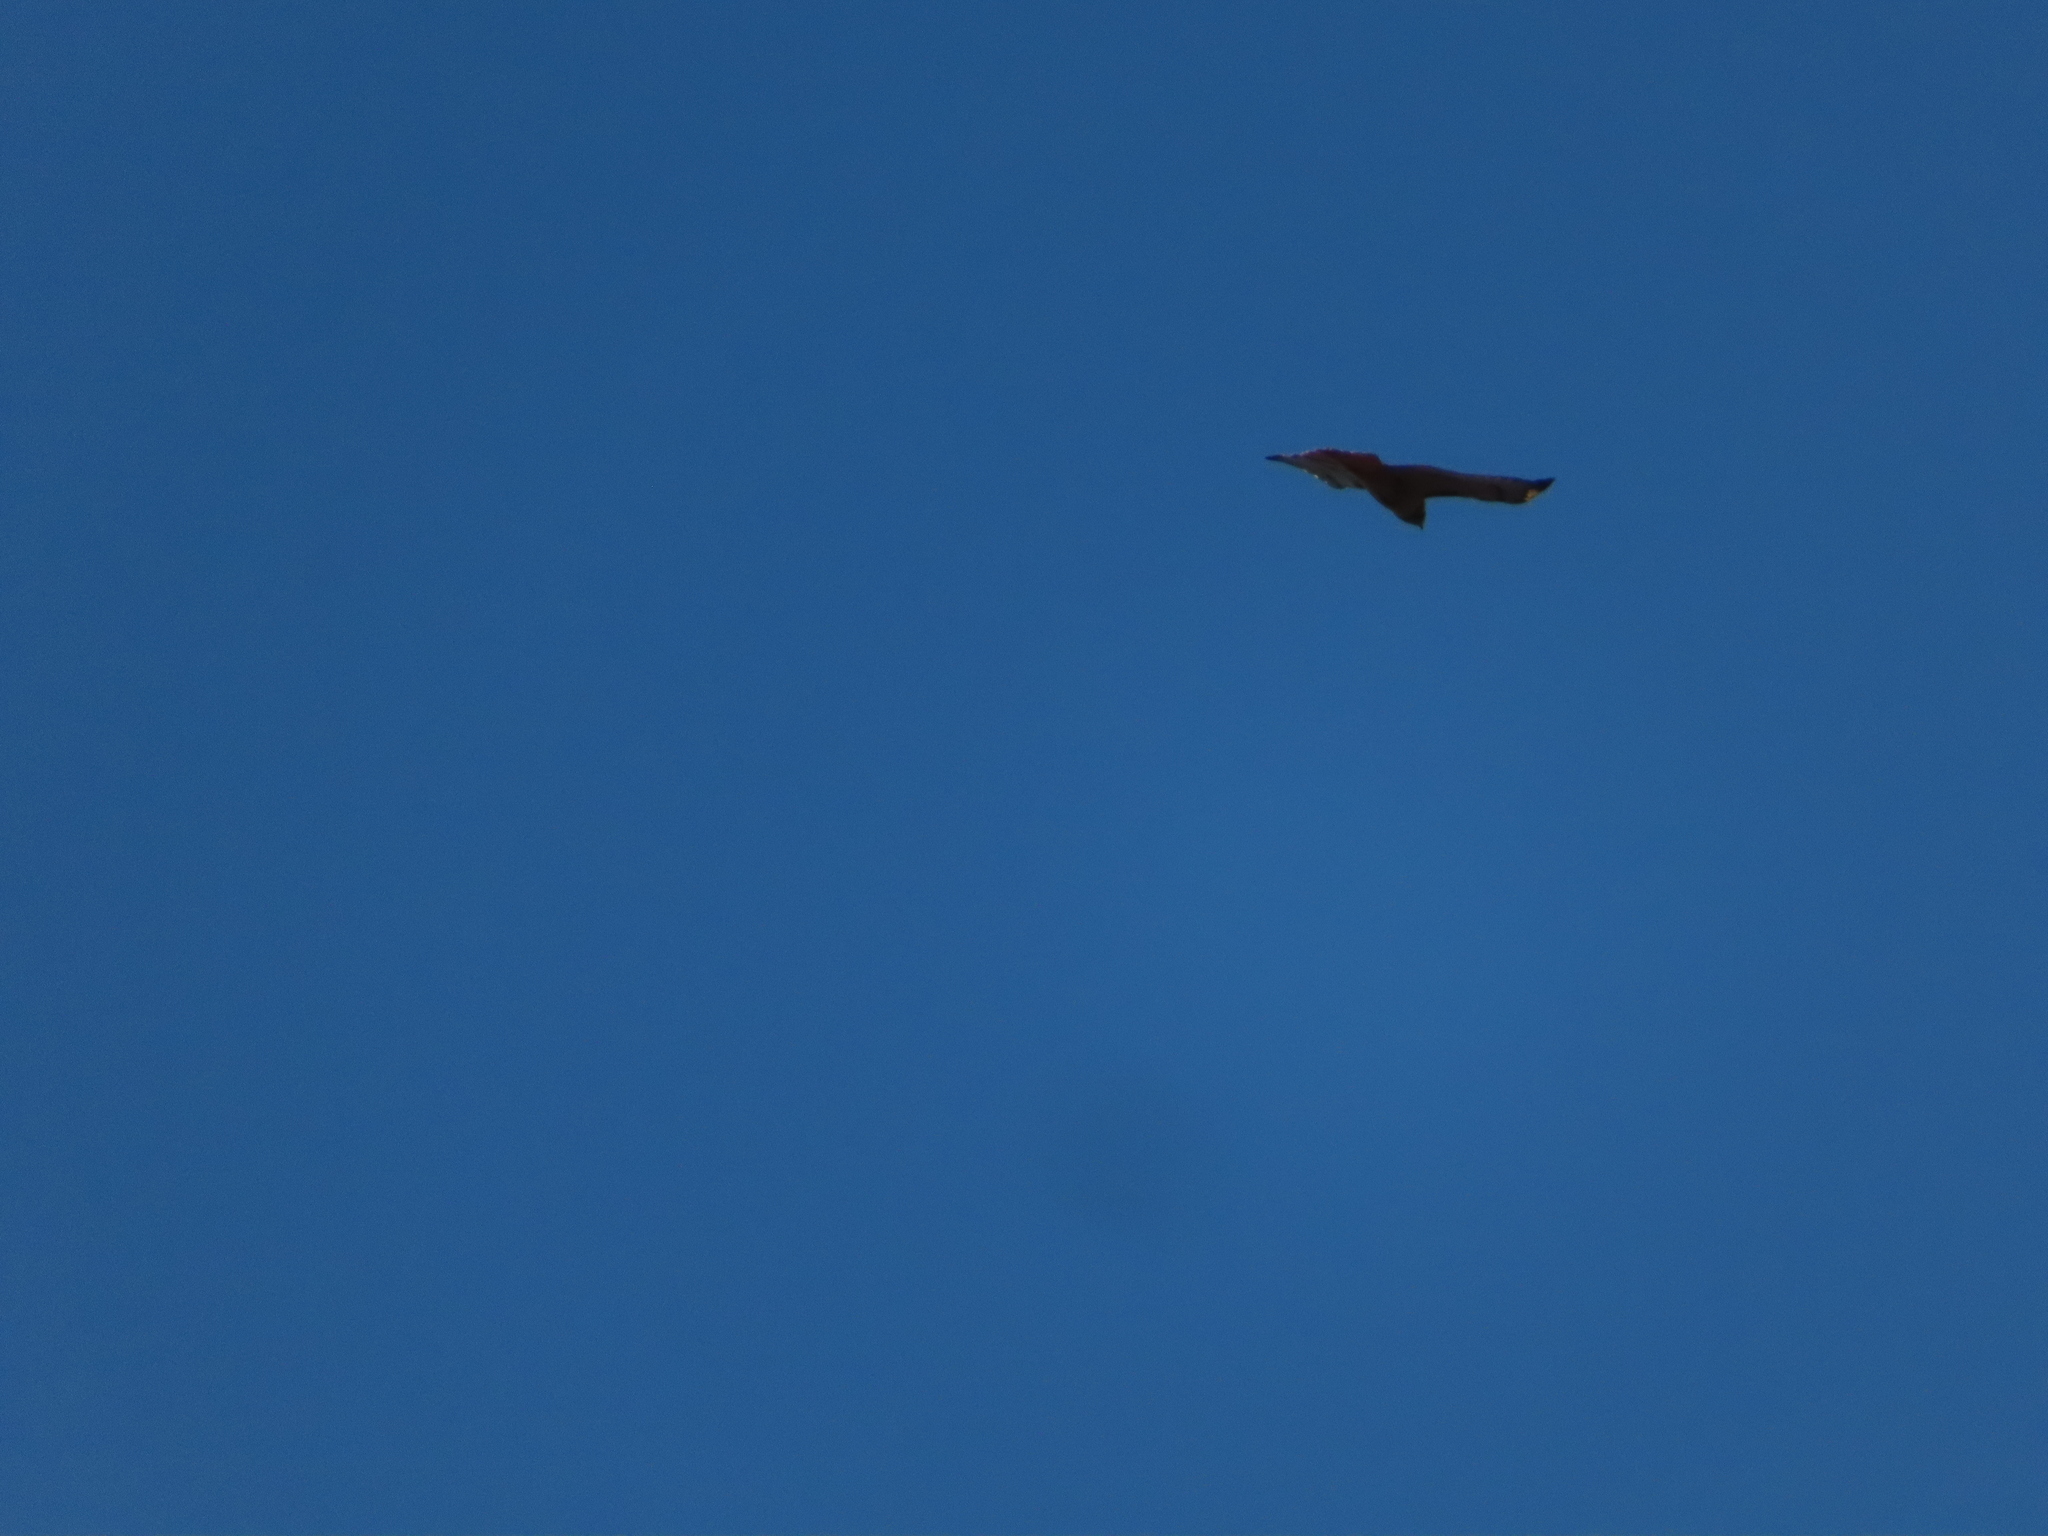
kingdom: Animalia
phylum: Chordata
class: Aves
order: Accipitriformes
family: Accipitridae
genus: Buteo
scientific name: Buteo jamaicensis
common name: Red-tailed hawk
